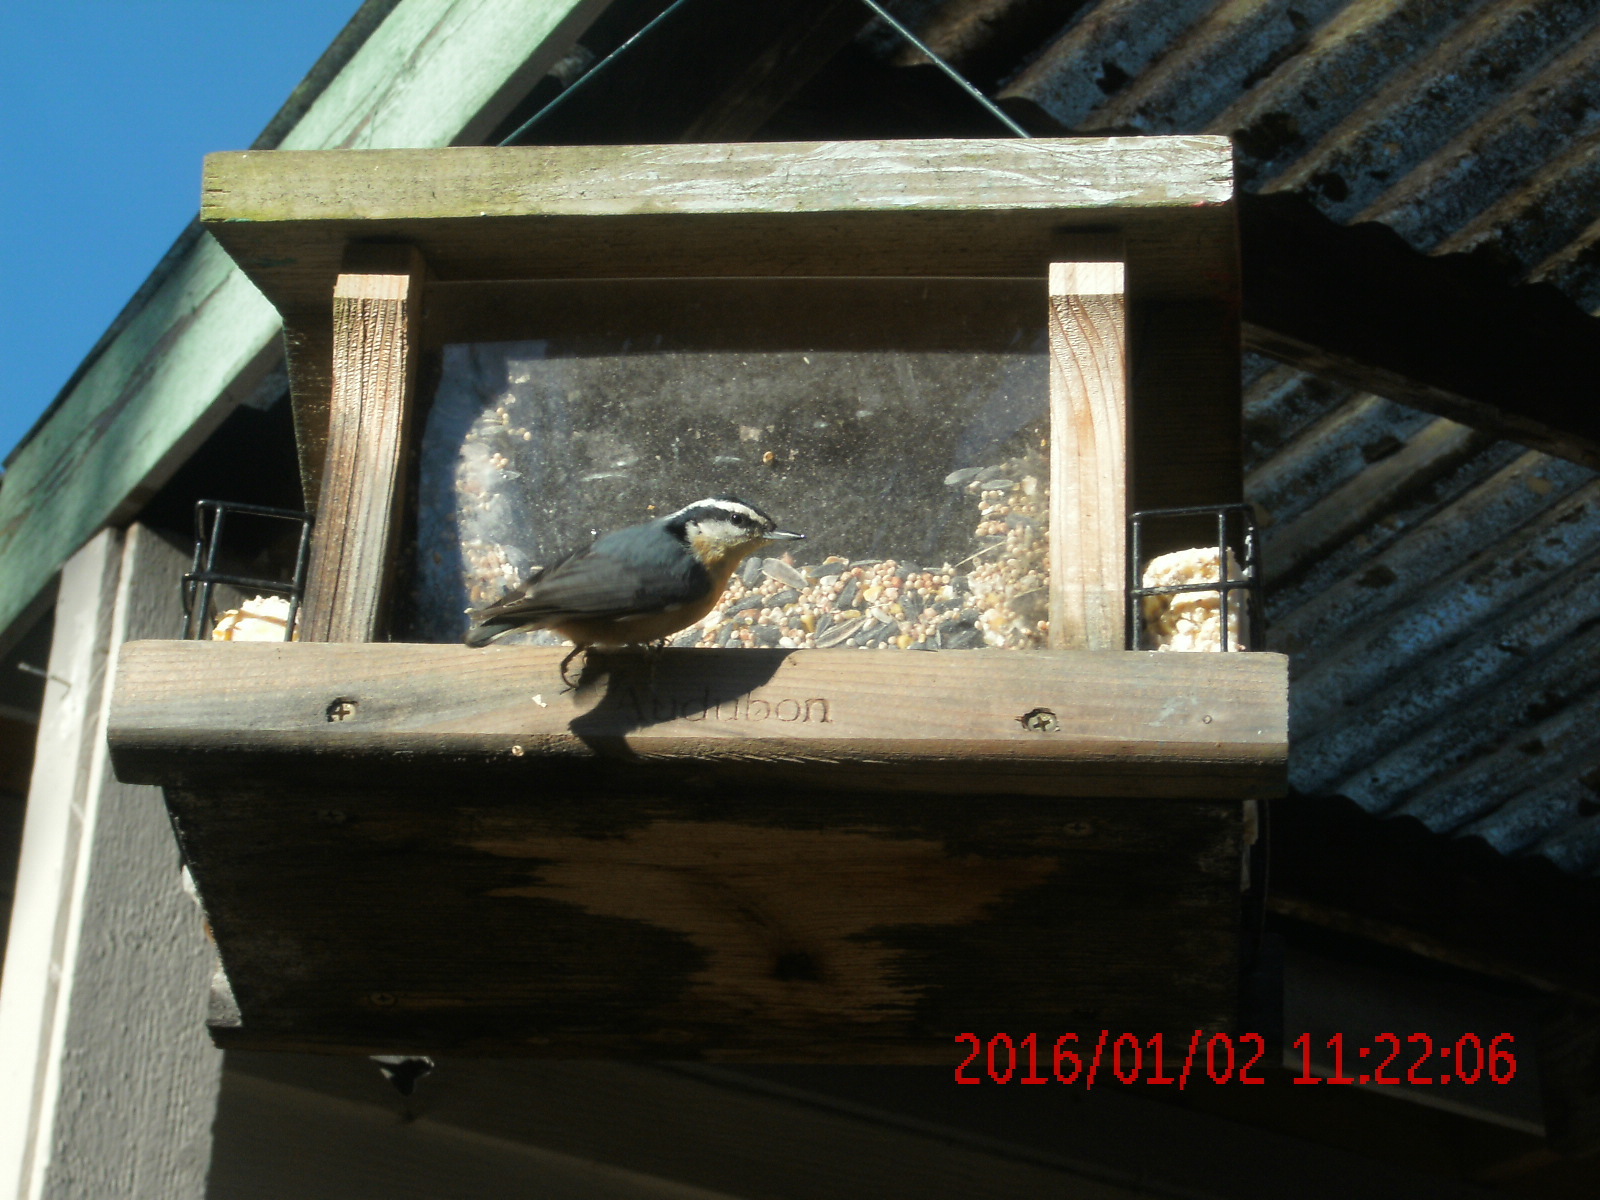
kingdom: Animalia
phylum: Chordata
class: Aves
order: Passeriformes
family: Sittidae
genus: Sitta
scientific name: Sitta canadensis
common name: Red-breasted nuthatch
